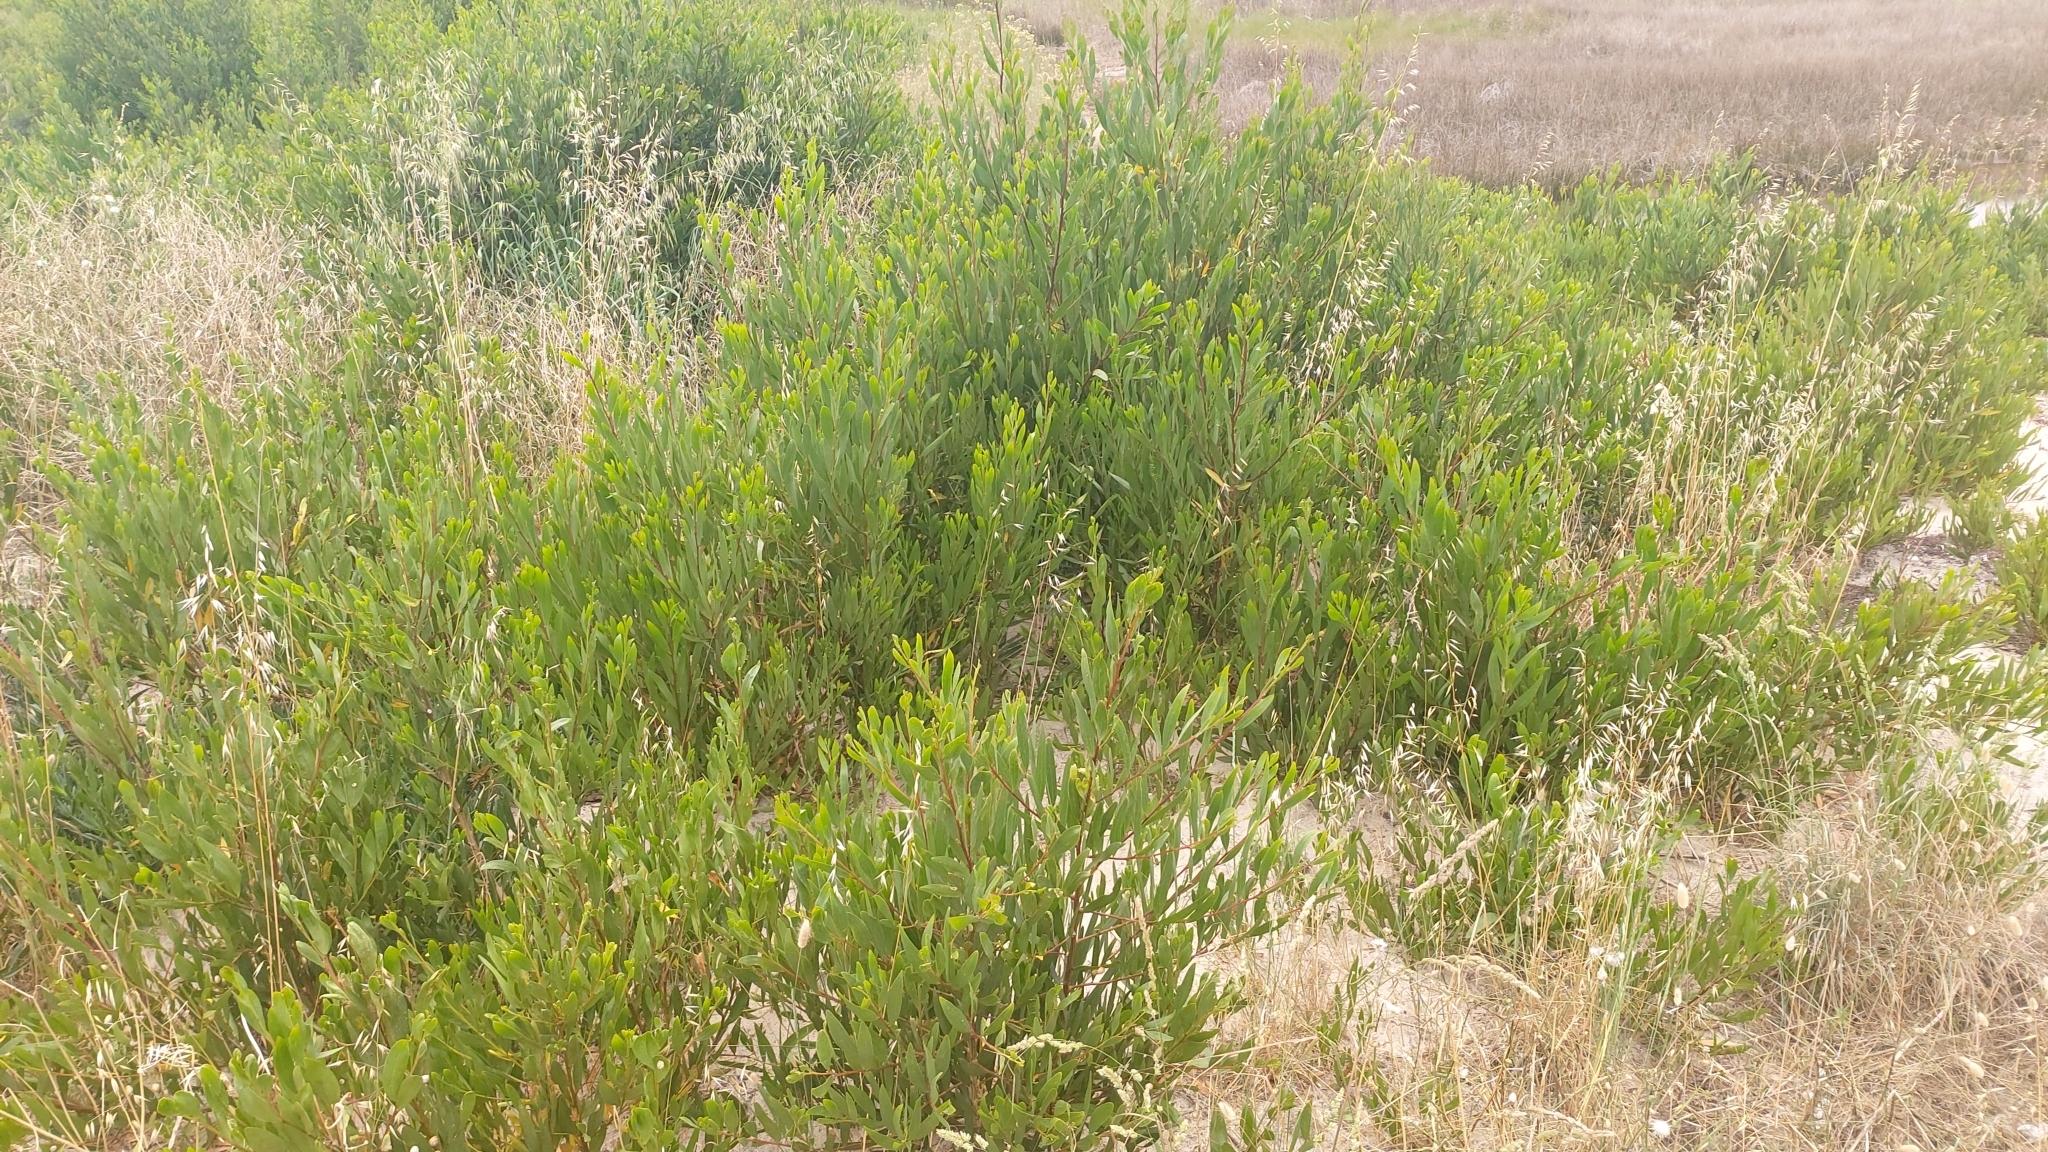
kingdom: Plantae
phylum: Tracheophyta
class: Magnoliopsida
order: Fabales
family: Fabaceae
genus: Acacia
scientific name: Acacia longifolia
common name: Sydney golden wattle
